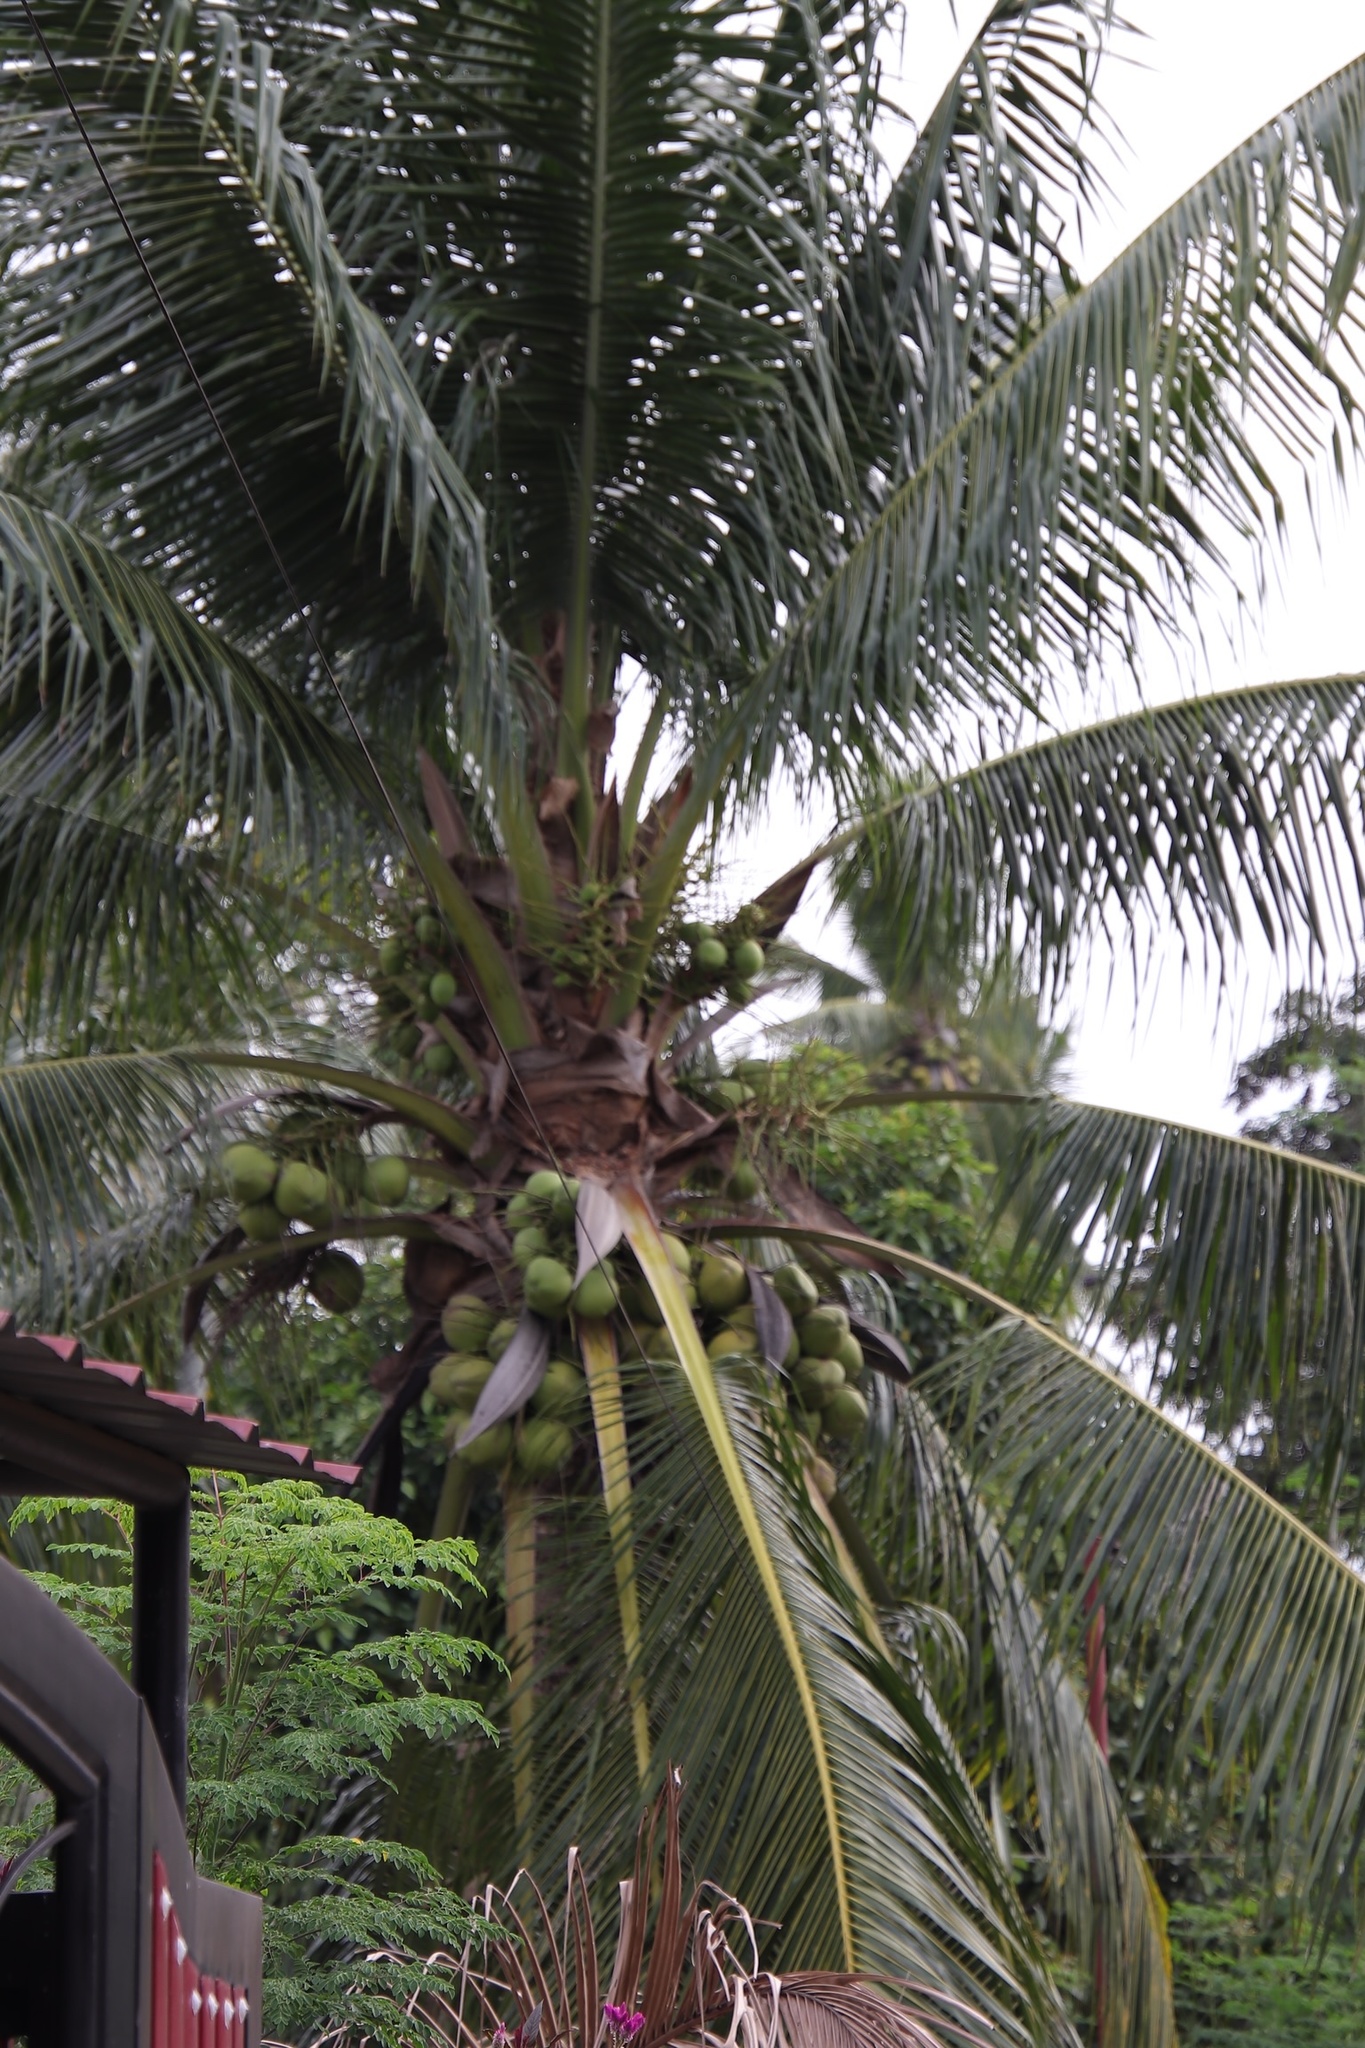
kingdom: Plantae
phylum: Tracheophyta
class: Liliopsida
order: Arecales
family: Arecaceae
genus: Cocos
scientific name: Cocos nucifera
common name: Coconut palm
